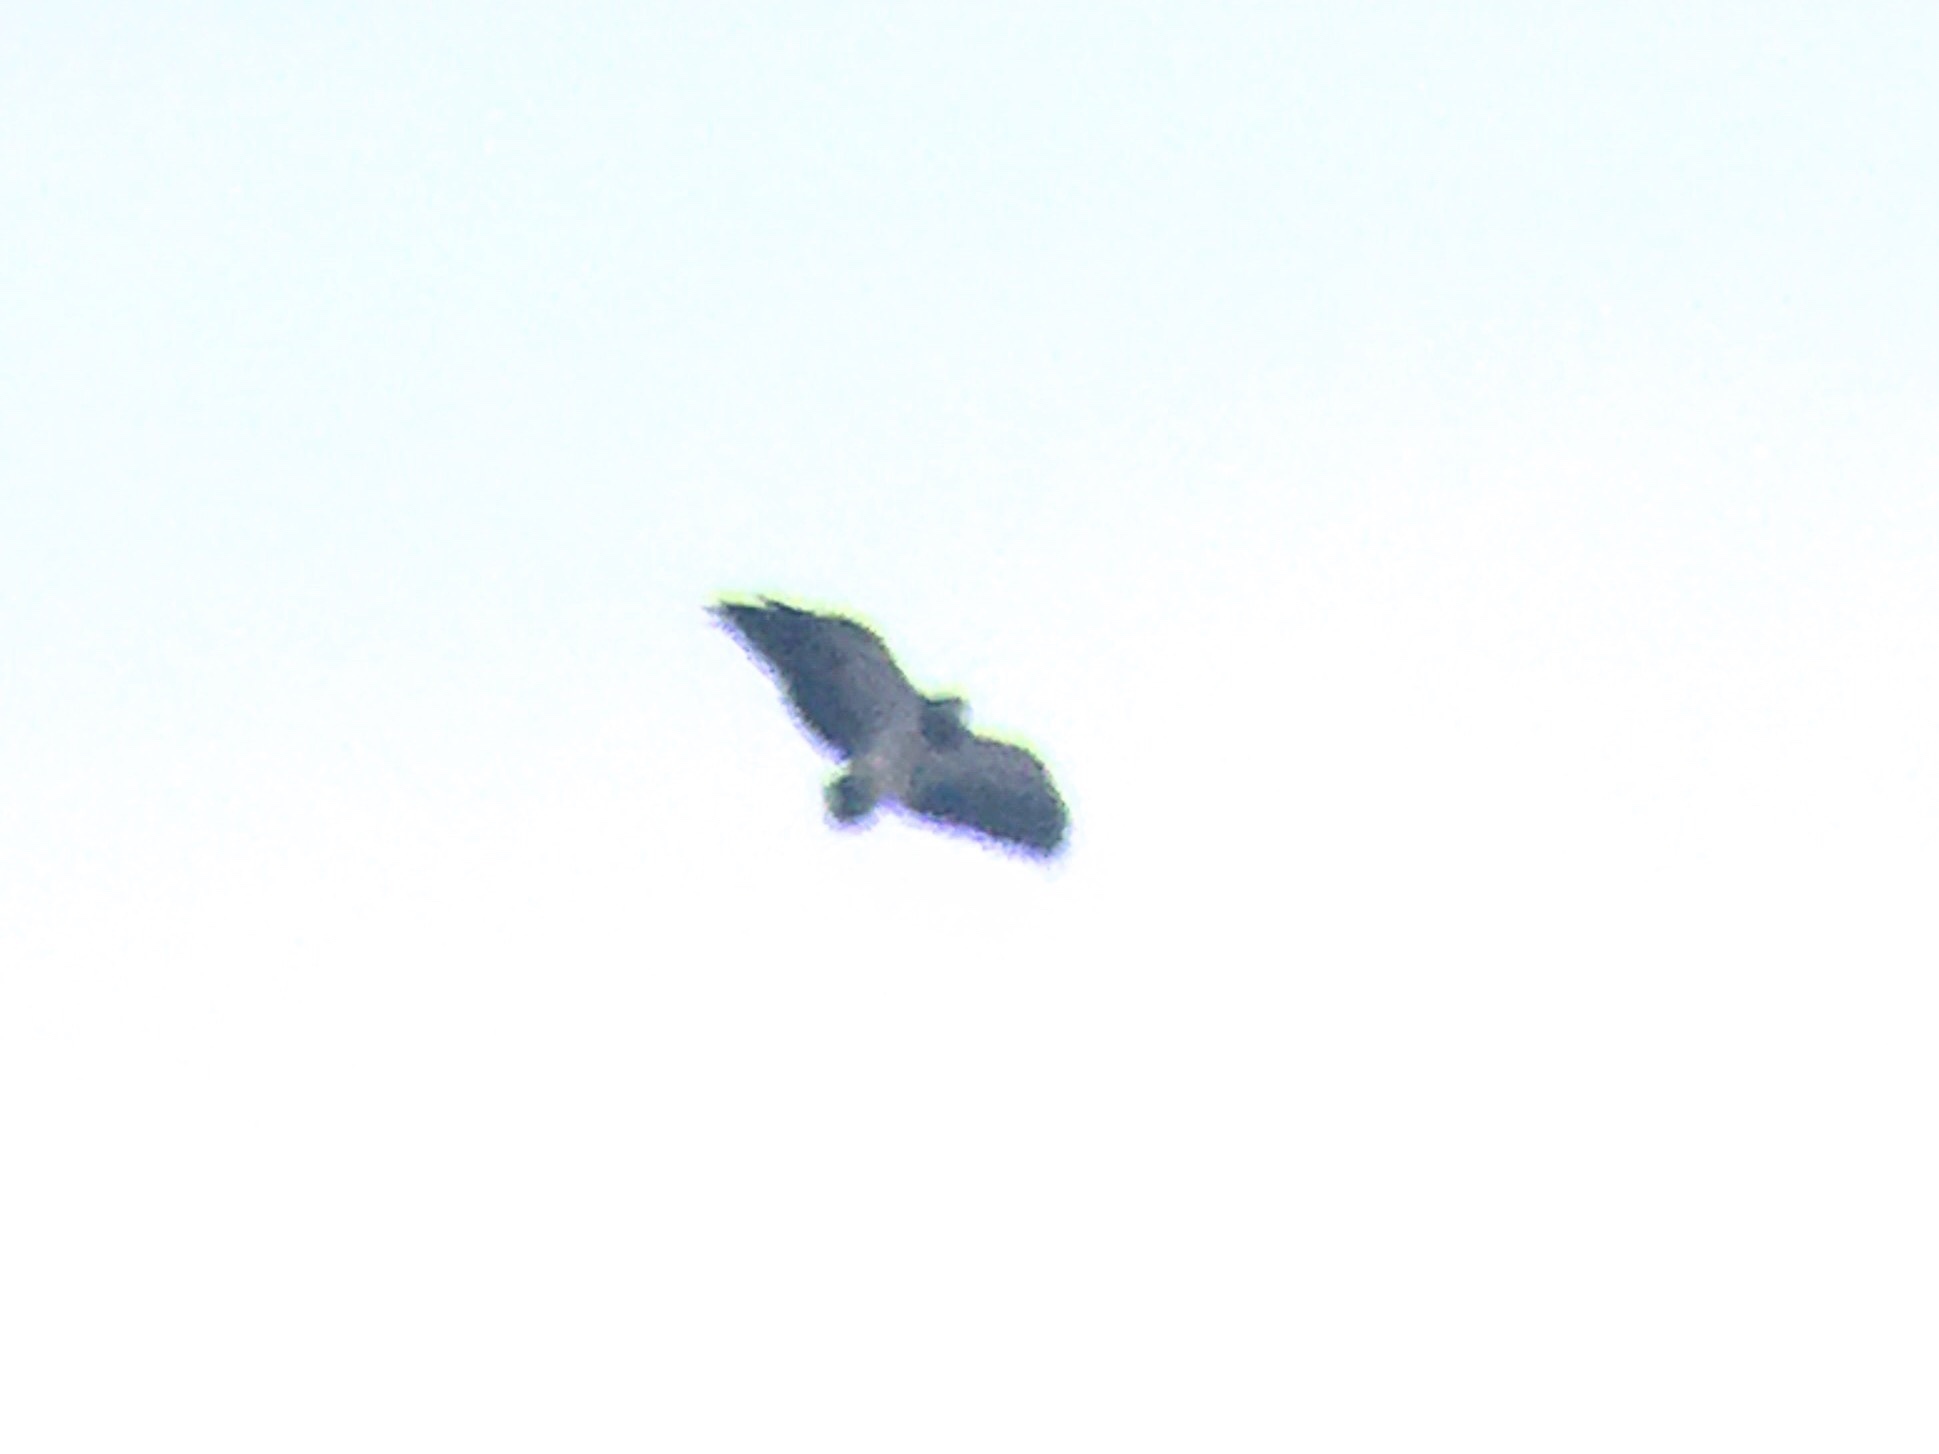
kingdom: Animalia
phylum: Chordata
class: Aves
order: Accipitriformes
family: Accipitridae
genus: Geranoaetus
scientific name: Geranoaetus melanoleucus
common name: Black-chested buzzard-eagle
